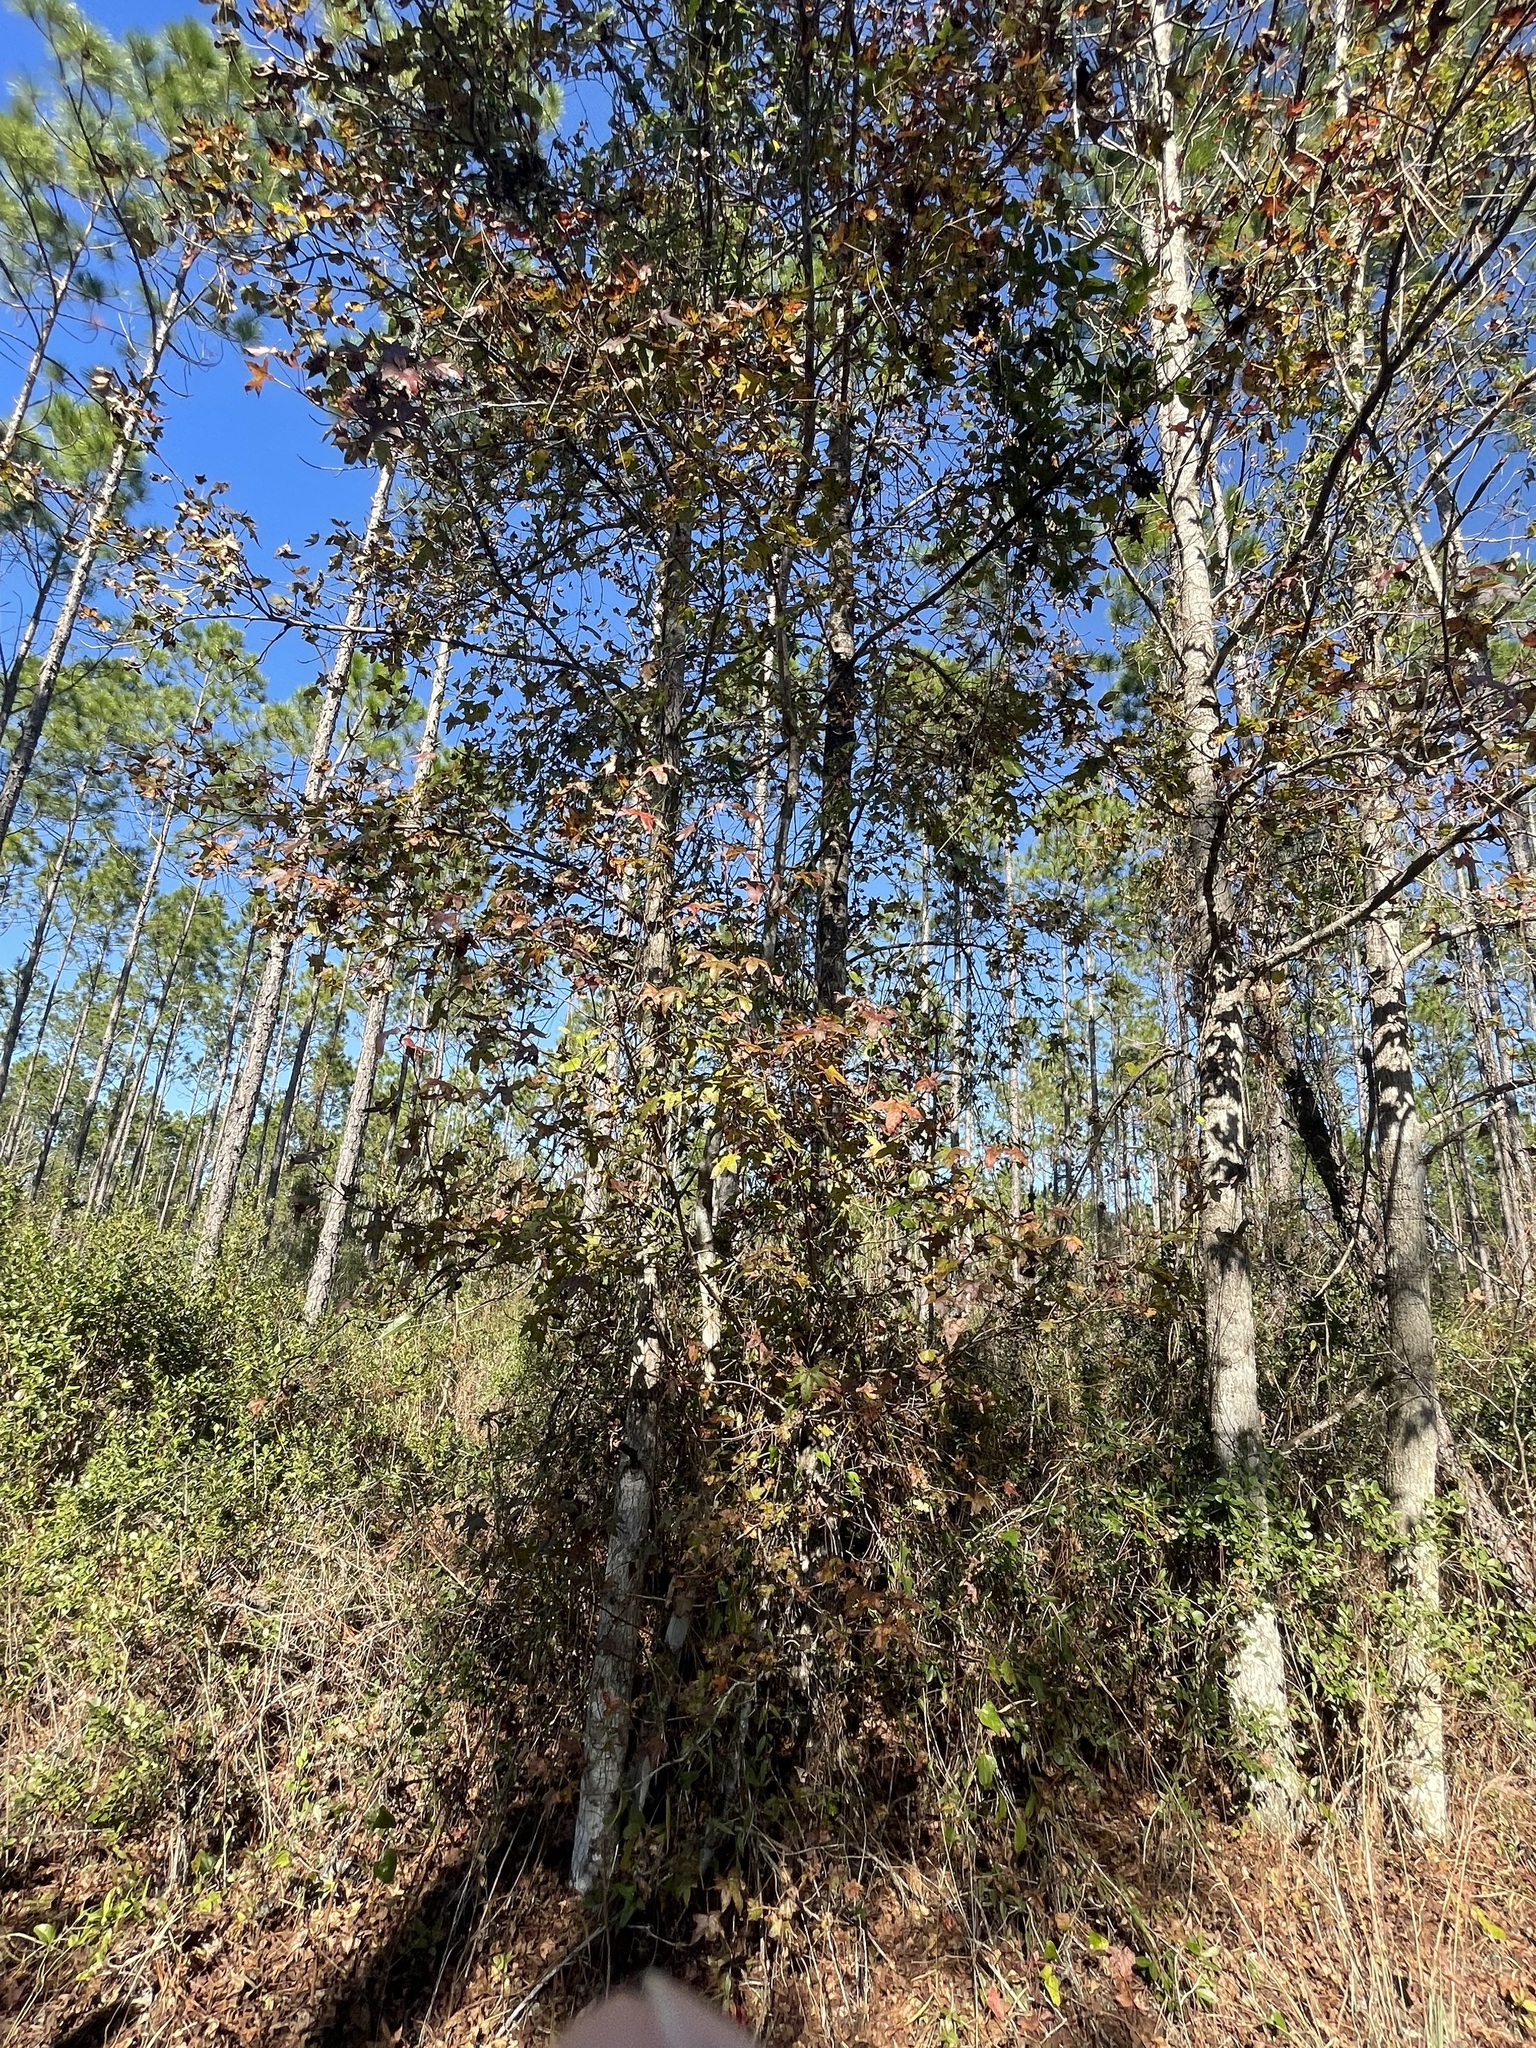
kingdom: Plantae
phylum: Tracheophyta
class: Magnoliopsida
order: Saxifragales
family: Altingiaceae
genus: Liquidambar
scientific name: Liquidambar styraciflua
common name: Sweet gum
